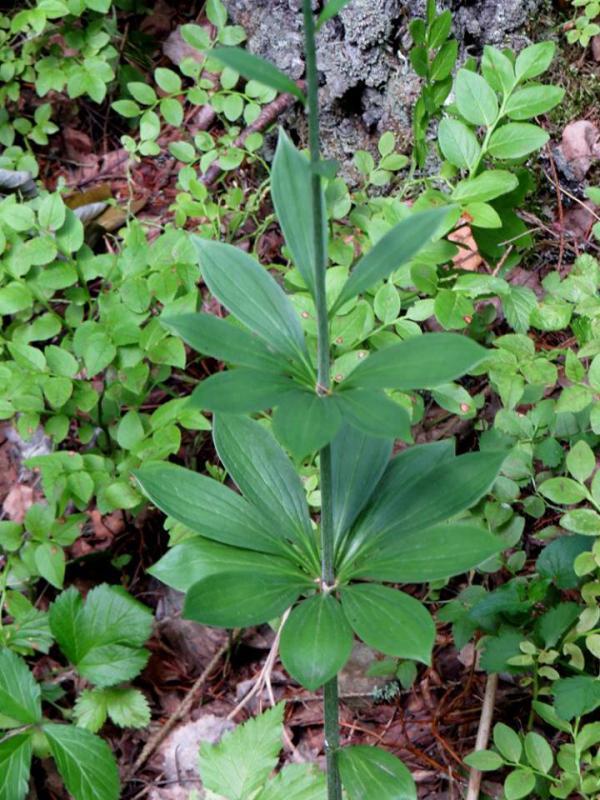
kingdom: Plantae
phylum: Tracheophyta
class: Liliopsida
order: Liliales
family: Liliaceae
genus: Lilium
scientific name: Lilium martagon
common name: Martagon lily
